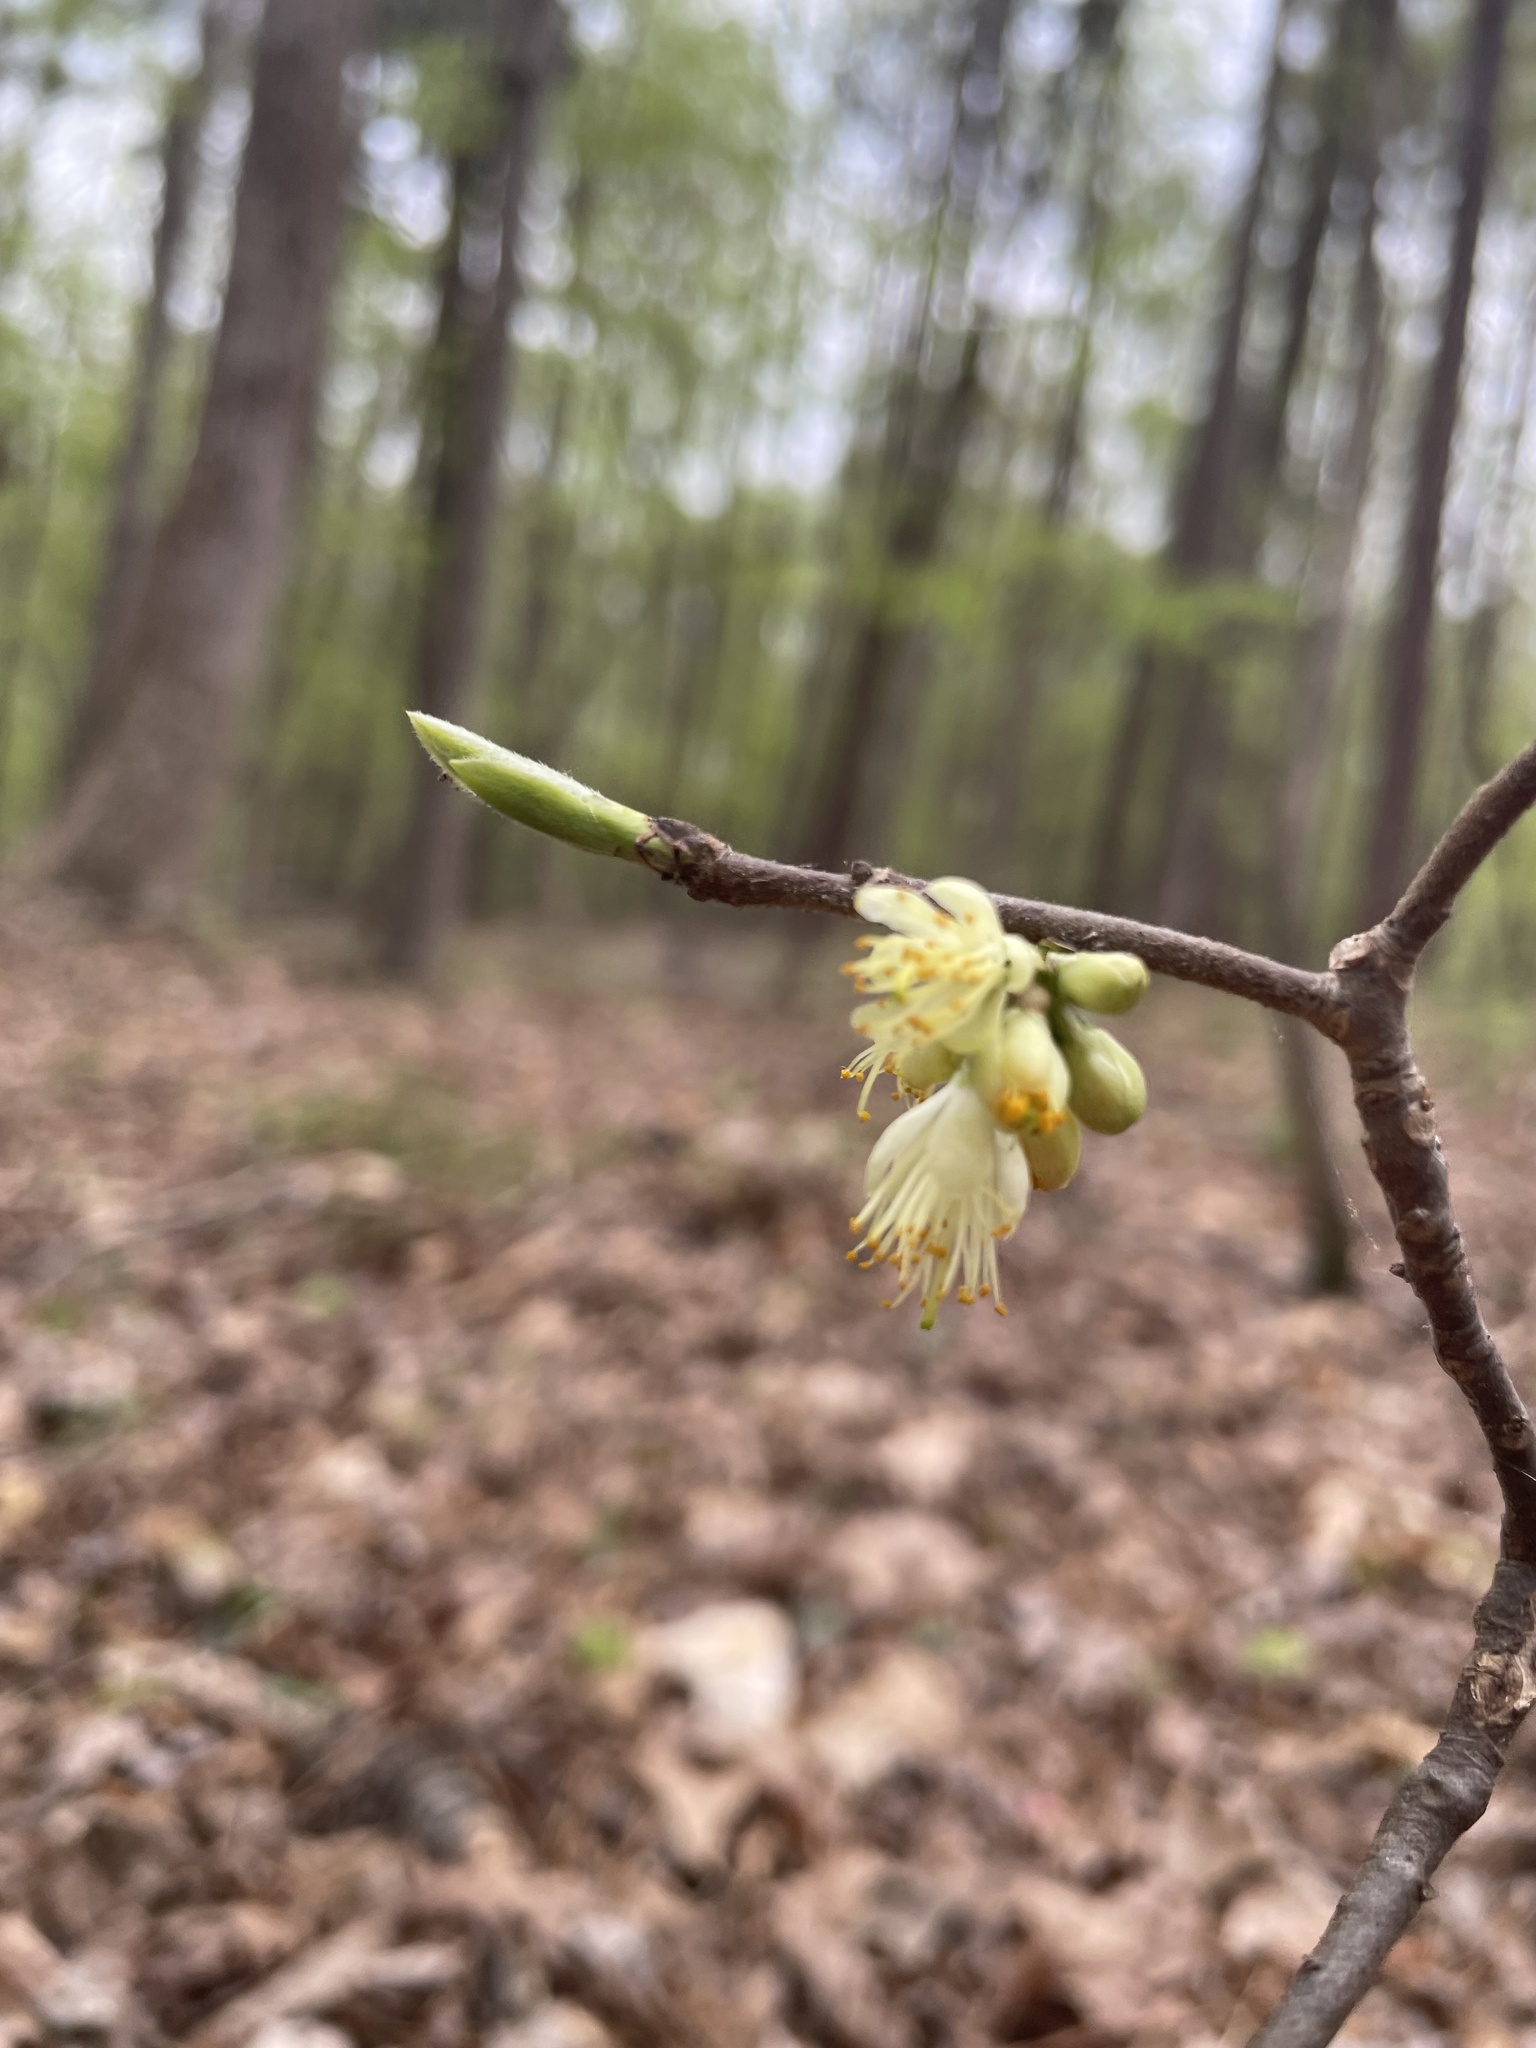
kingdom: Plantae
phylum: Tracheophyta
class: Magnoliopsida
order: Ericales
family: Symplocaceae
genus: Symplocos
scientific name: Symplocos tinctoria
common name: Horse-sugar
